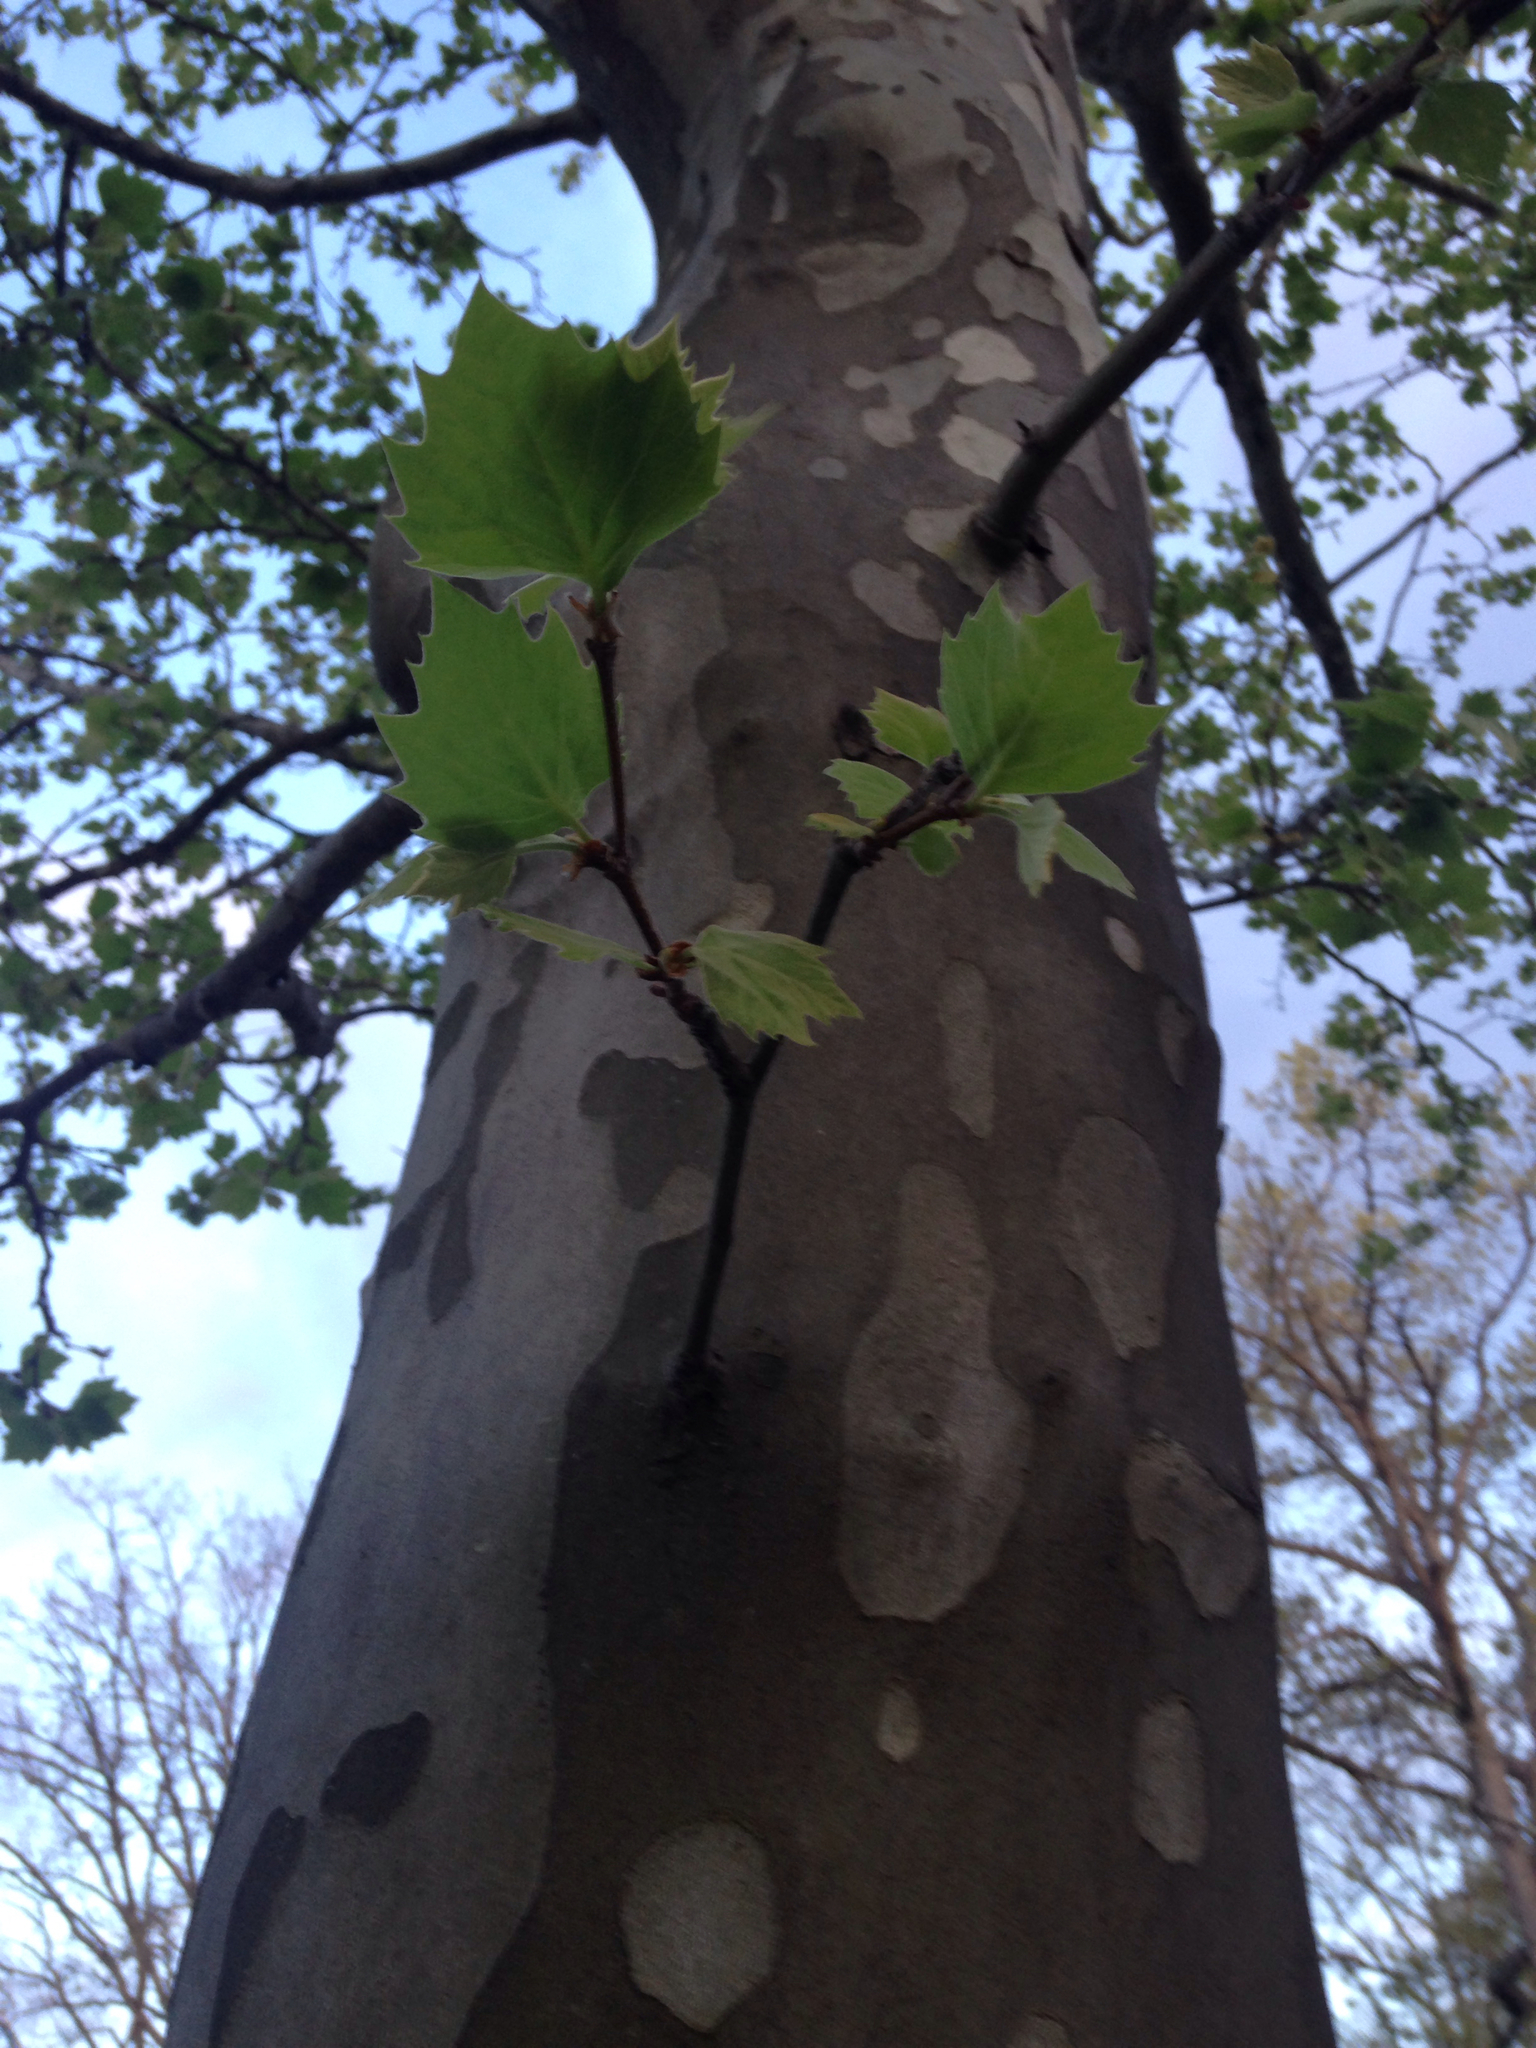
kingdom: Plantae
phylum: Tracheophyta
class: Magnoliopsida
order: Proteales
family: Platanaceae
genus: Platanus
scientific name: Platanus occidentalis
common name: American sycamore
